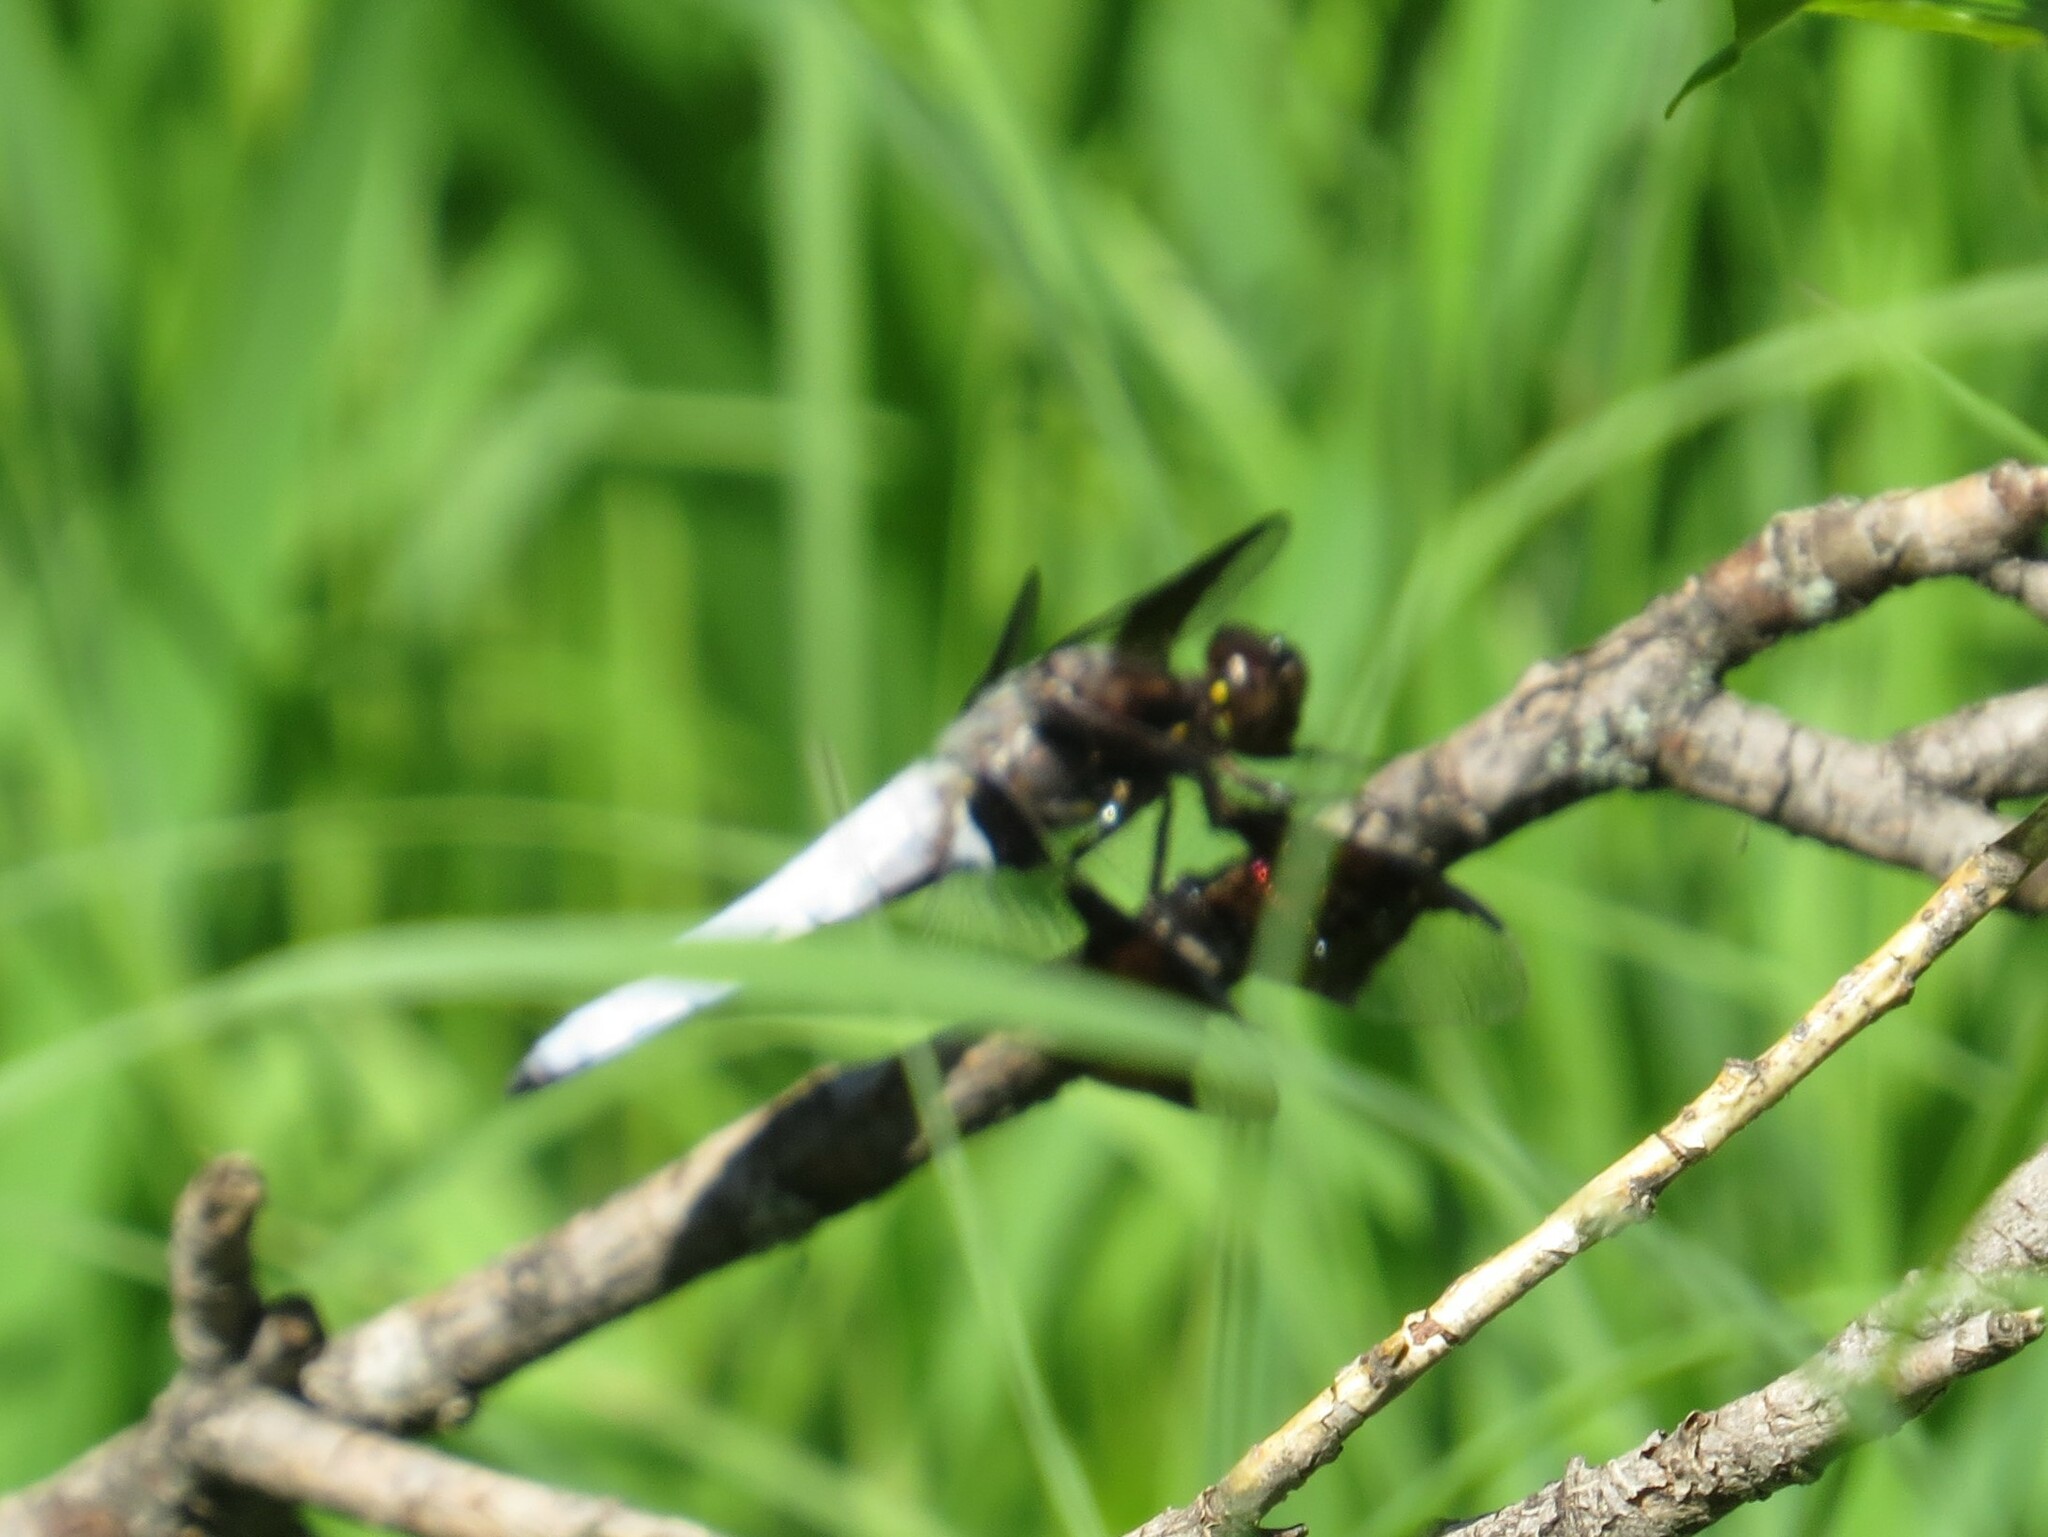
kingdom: Animalia
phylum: Arthropoda
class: Insecta
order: Odonata
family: Libellulidae
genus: Plathemis
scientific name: Plathemis lydia
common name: Common whitetail
